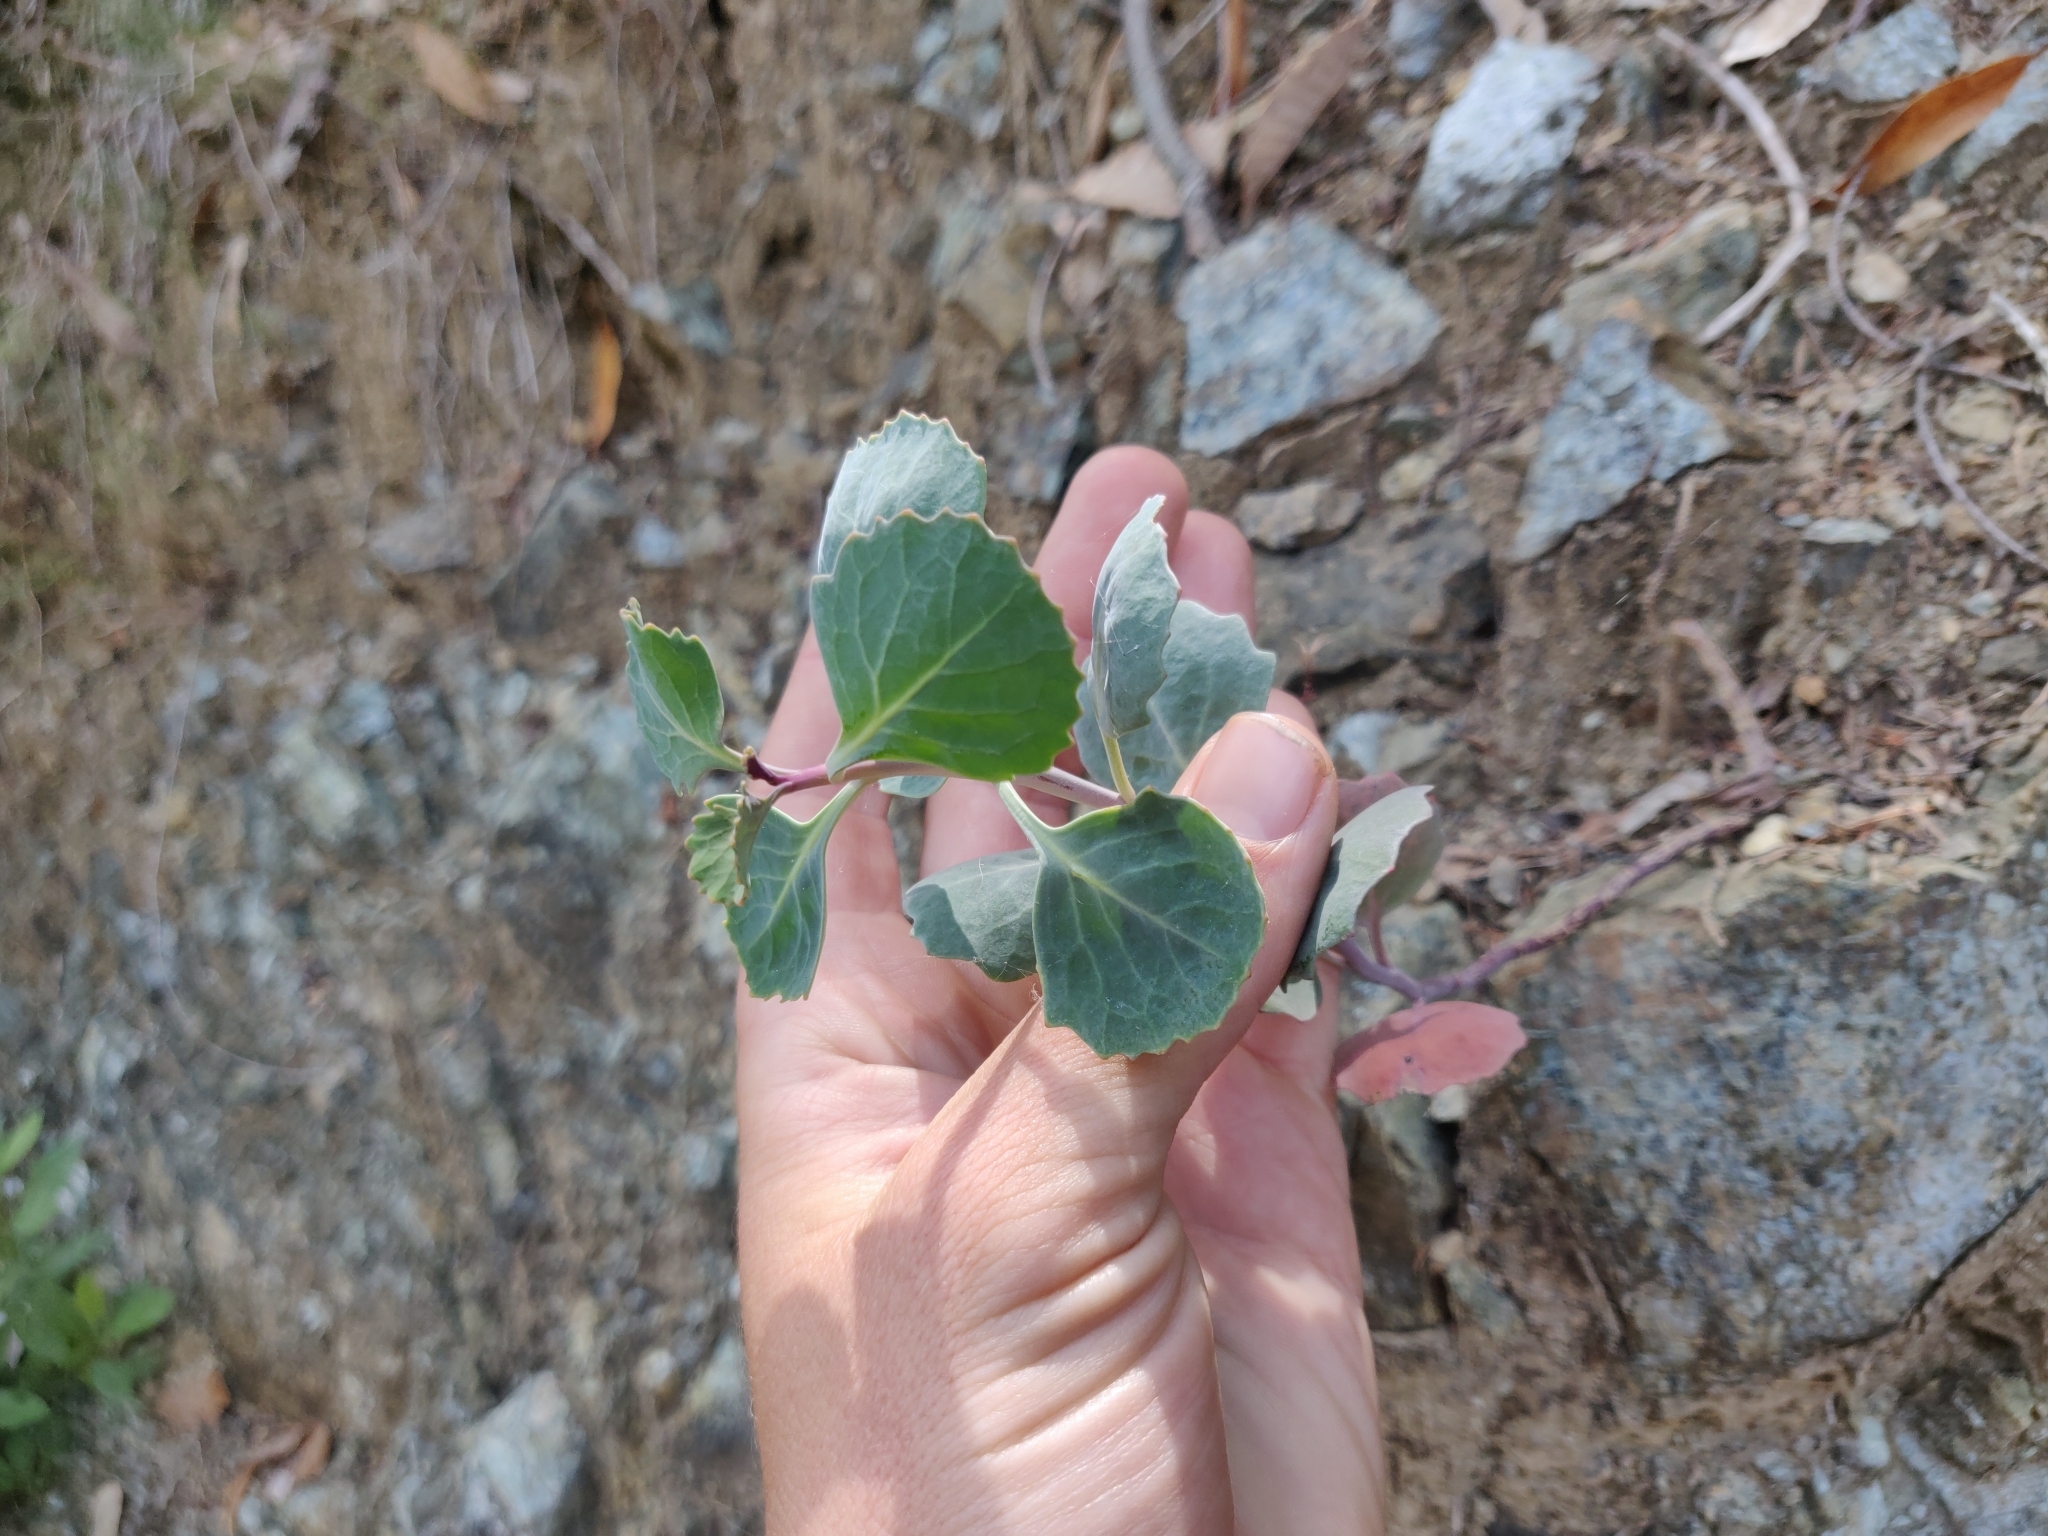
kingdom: Plantae
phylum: Tracheophyta
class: Magnoliopsida
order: Brassicales
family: Brassicaceae
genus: Streptanthus
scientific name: Streptanthus morrisonii
